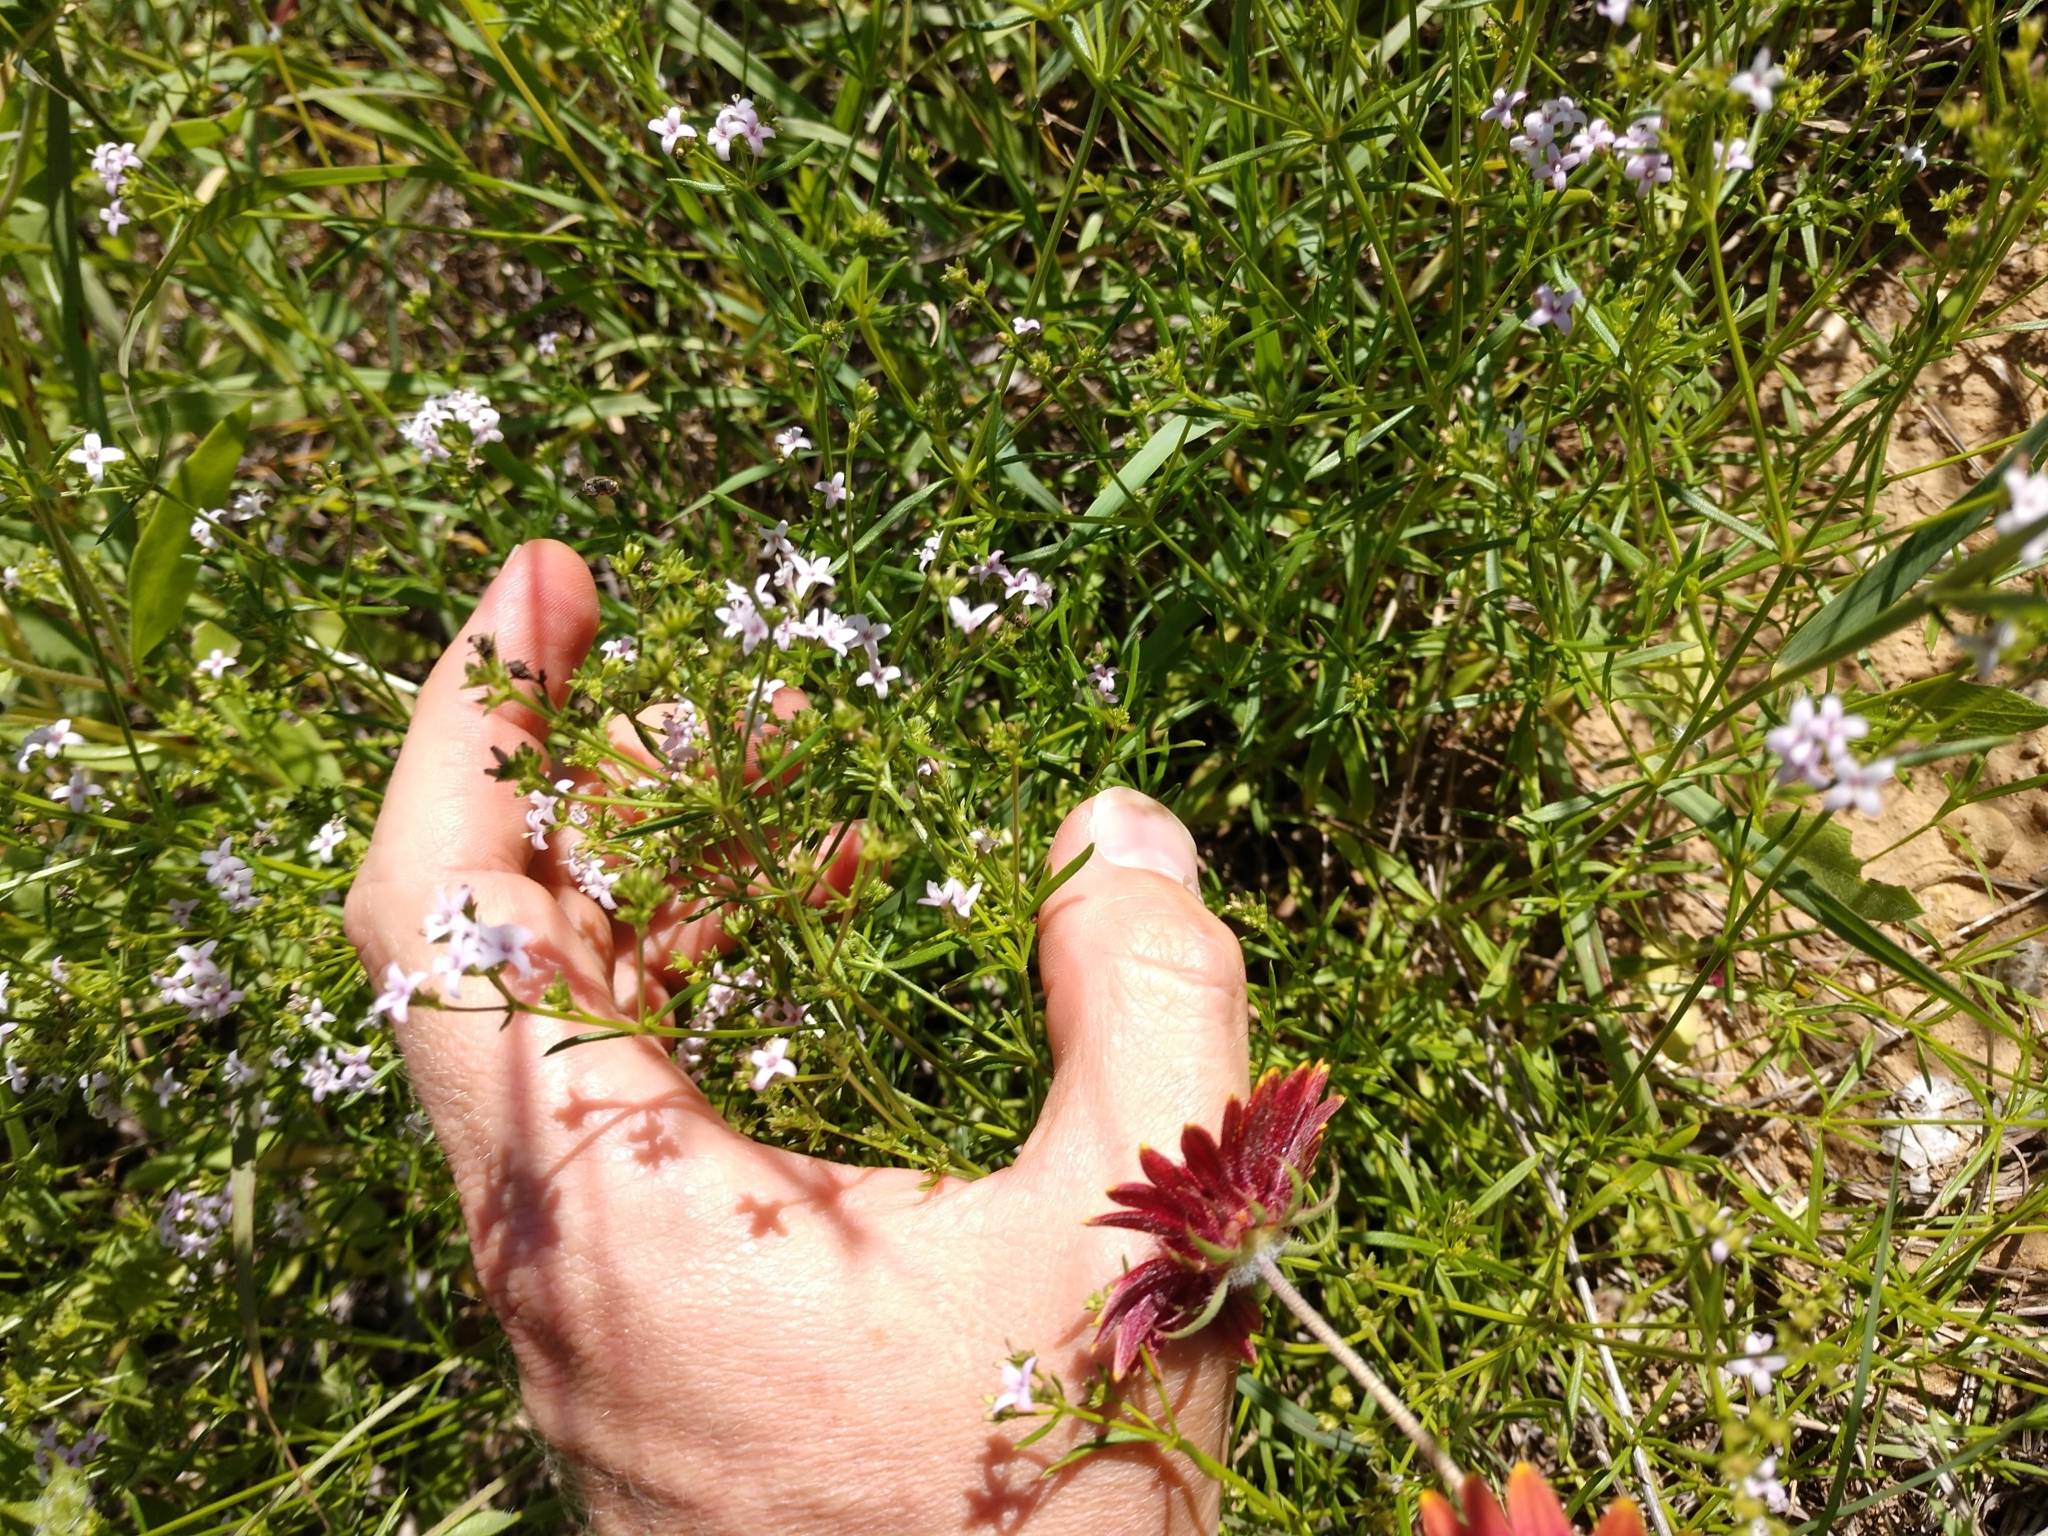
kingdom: Plantae
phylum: Tracheophyta
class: Magnoliopsida
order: Gentianales
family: Rubiaceae
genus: Stenaria
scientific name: Stenaria nigricans
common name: Diamondflowers
